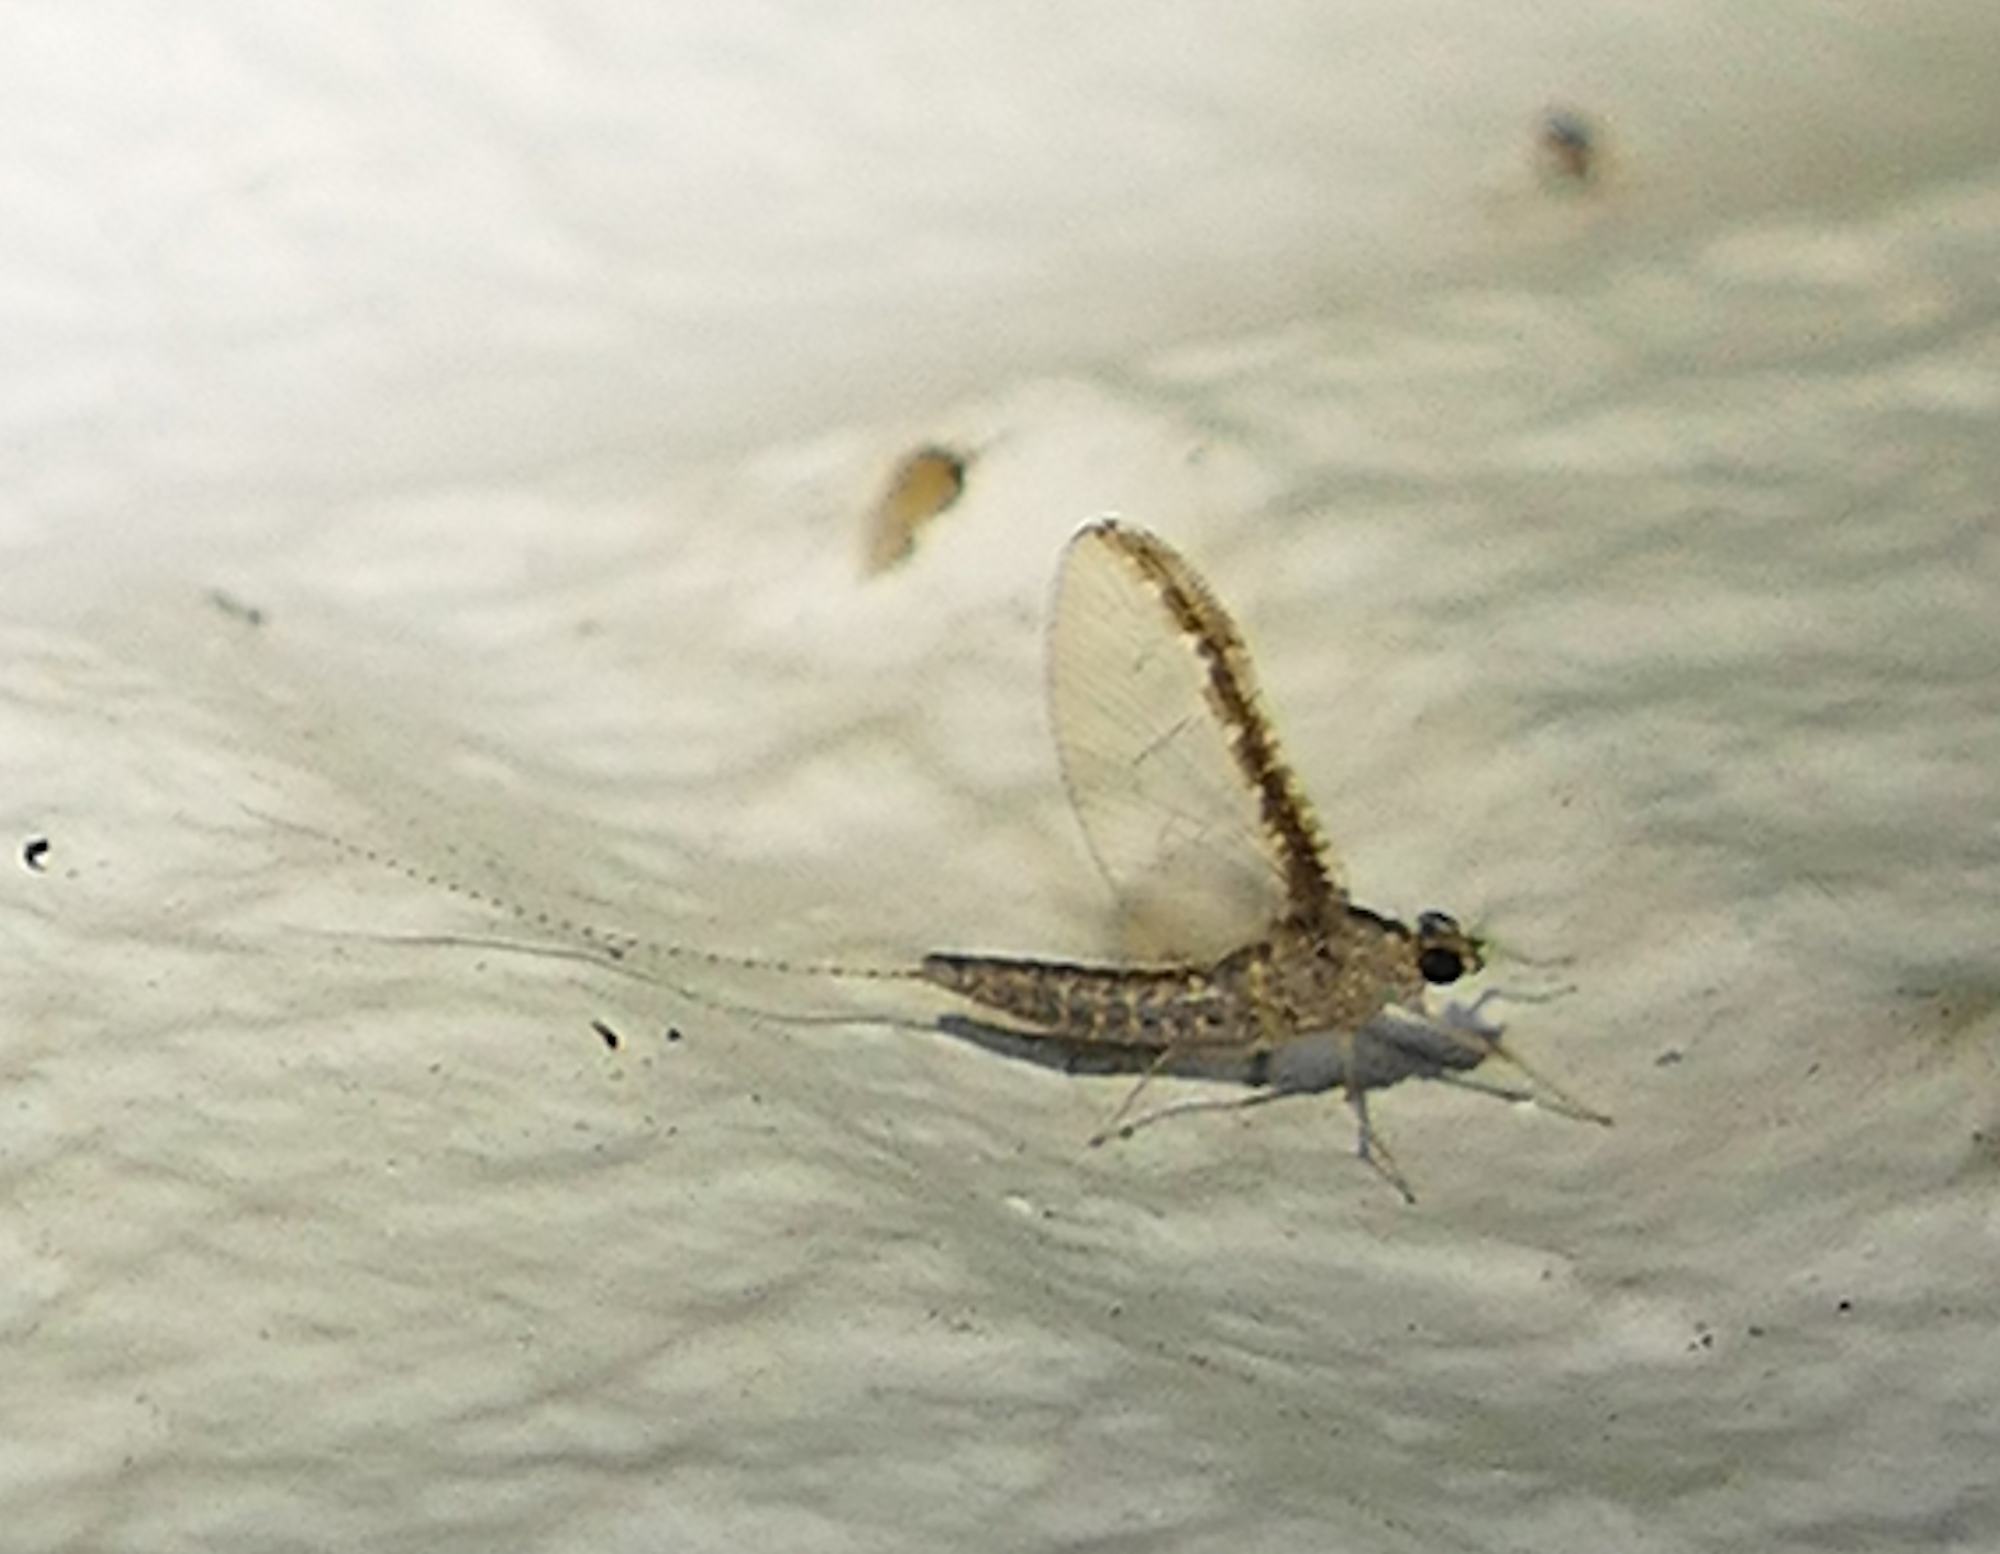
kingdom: Animalia
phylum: Arthropoda
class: Insecta
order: Ephemeroptera
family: Baetidae
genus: Callibaetis
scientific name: Callibaetis californicus
